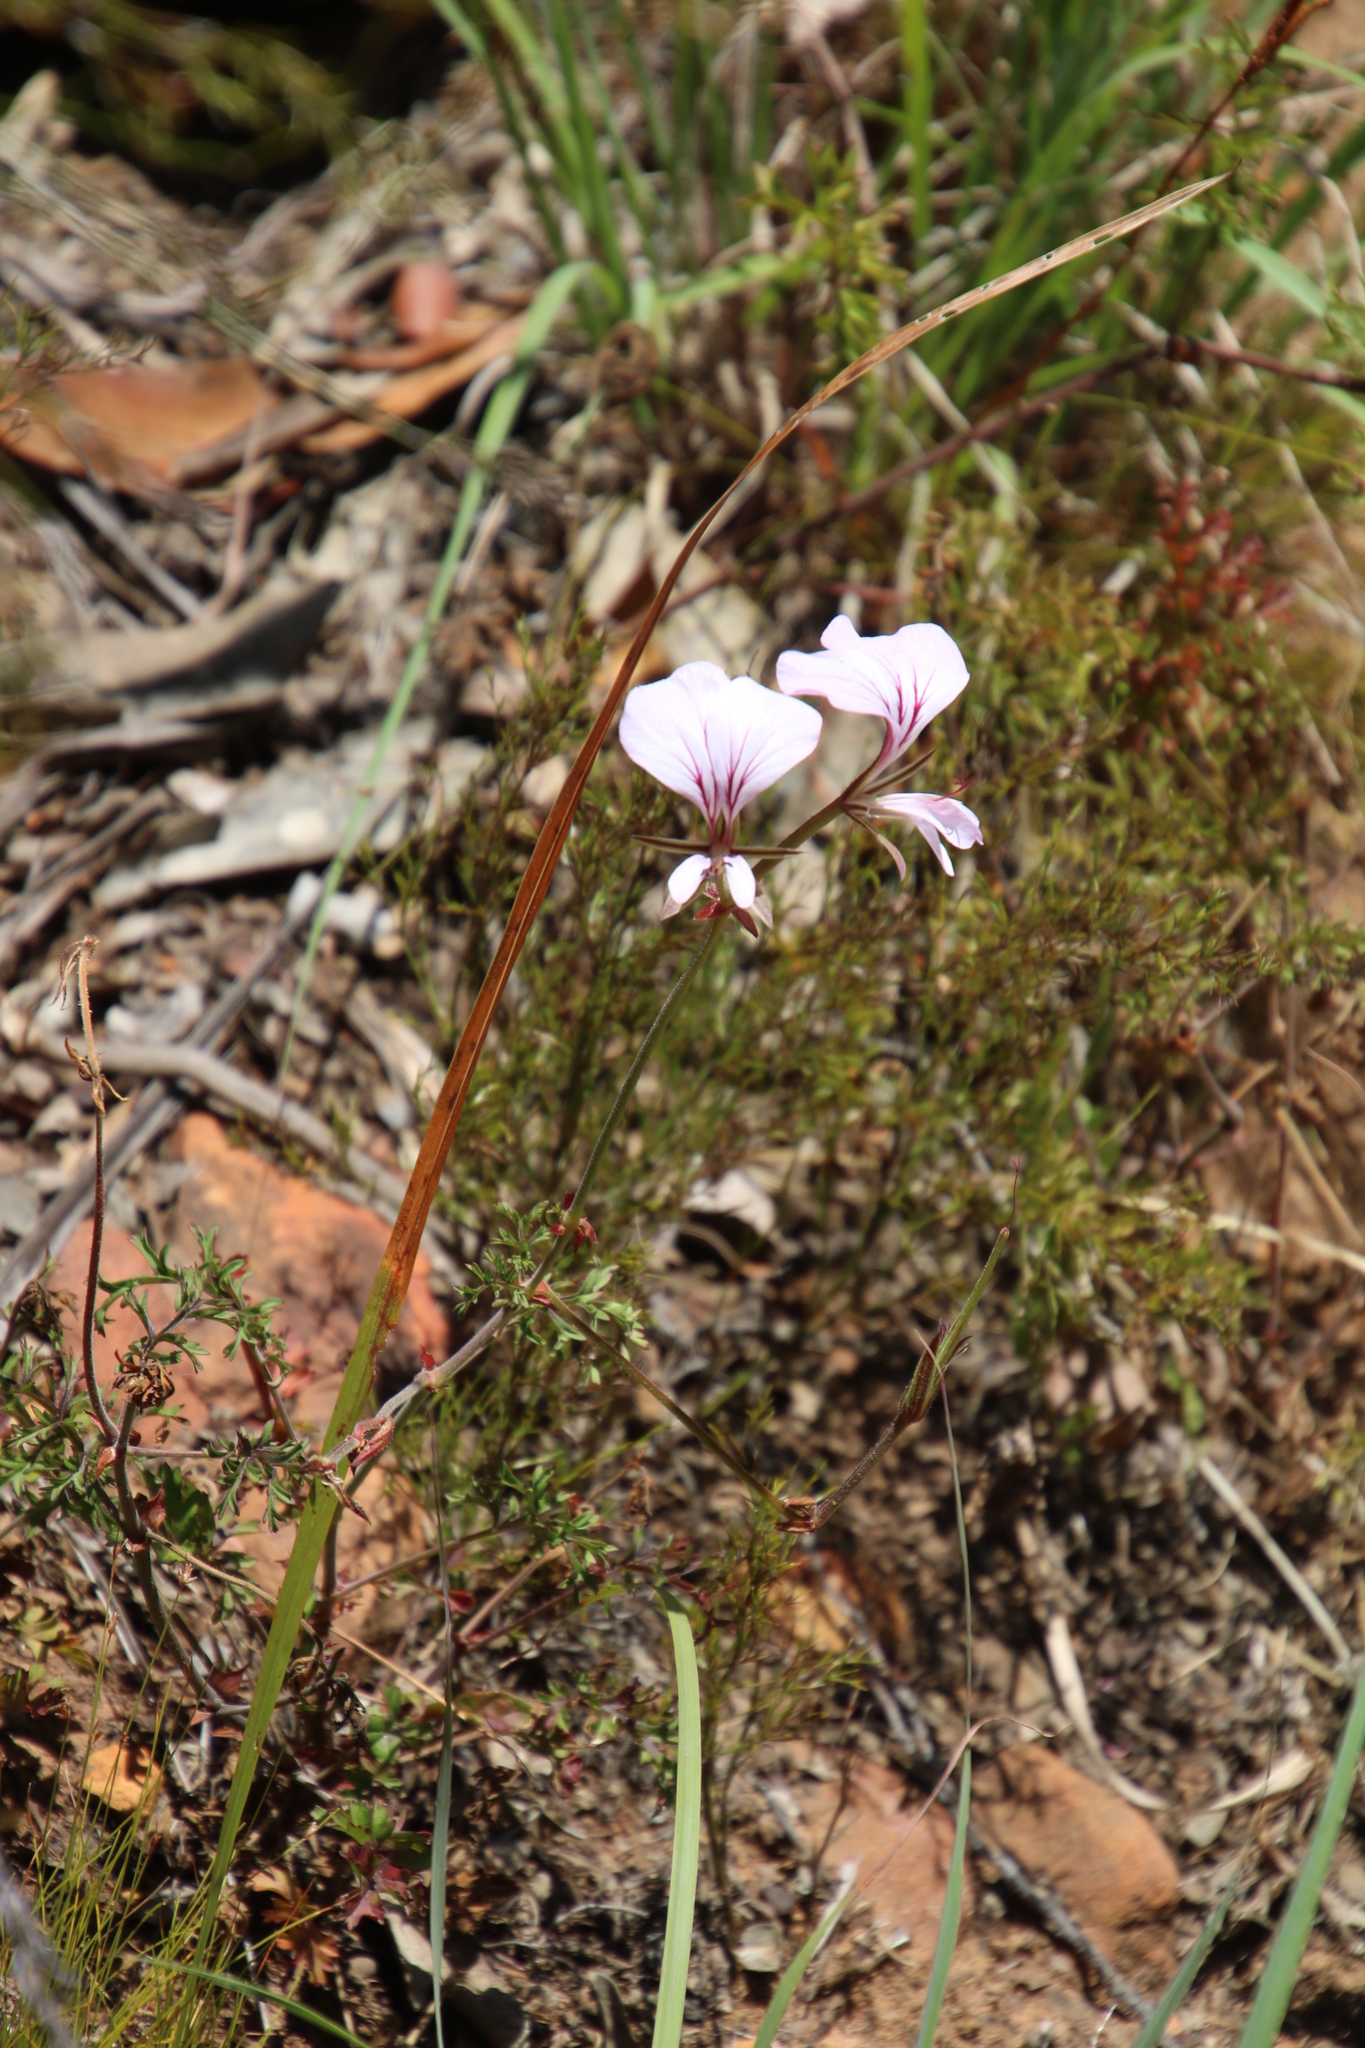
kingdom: Plantae
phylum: Tracheophyta
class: Magnoliopsida
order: Geraniales
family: Geraniaceae
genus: Pelargonium
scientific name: Pelargonium myrrhifolium
